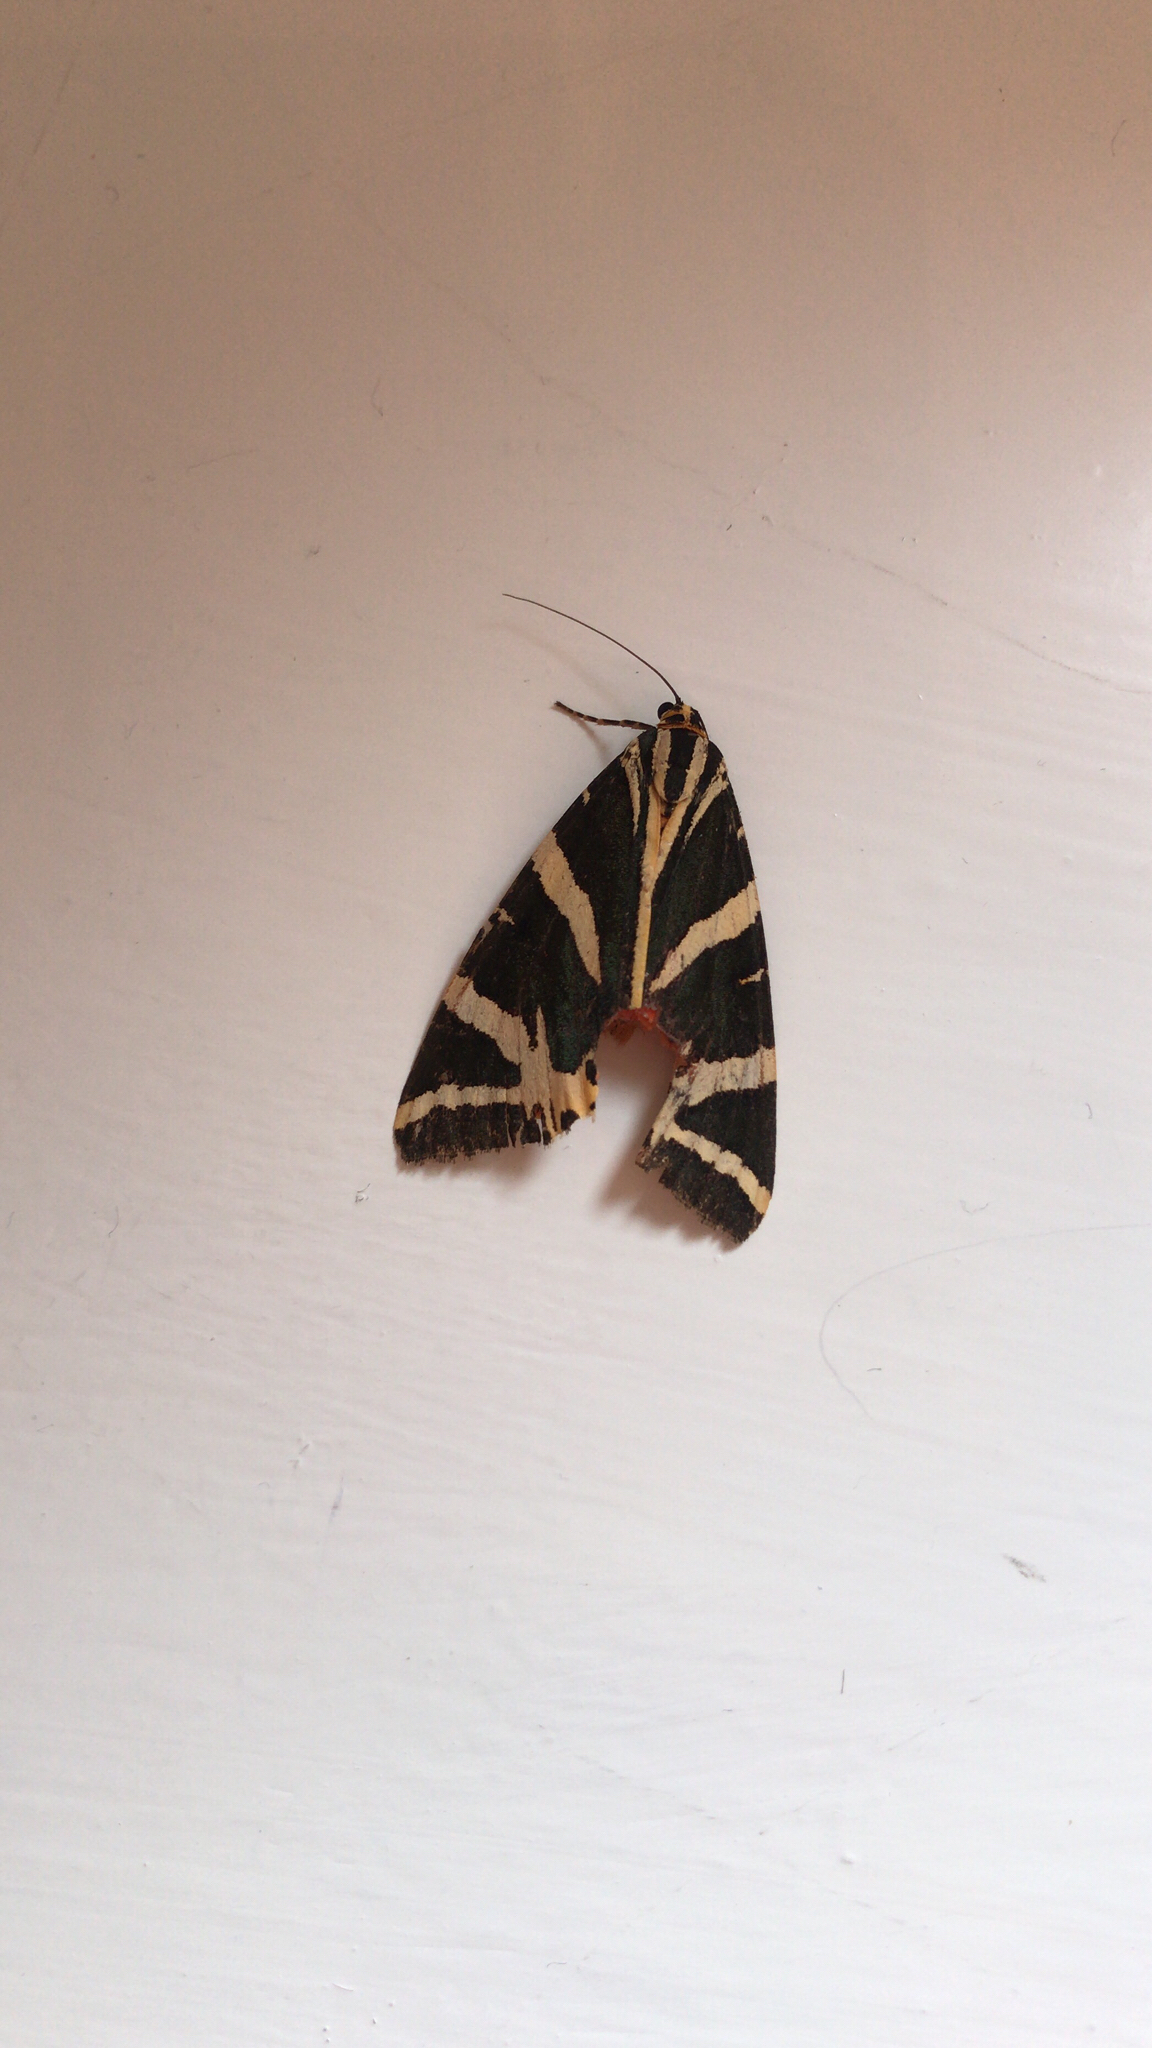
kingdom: Animalia
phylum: Arthropoda
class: Insecta
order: Lepidoptera
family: Erebidae
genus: Euplagia
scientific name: Euplagia quadripunctaria
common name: Jersey tiger
